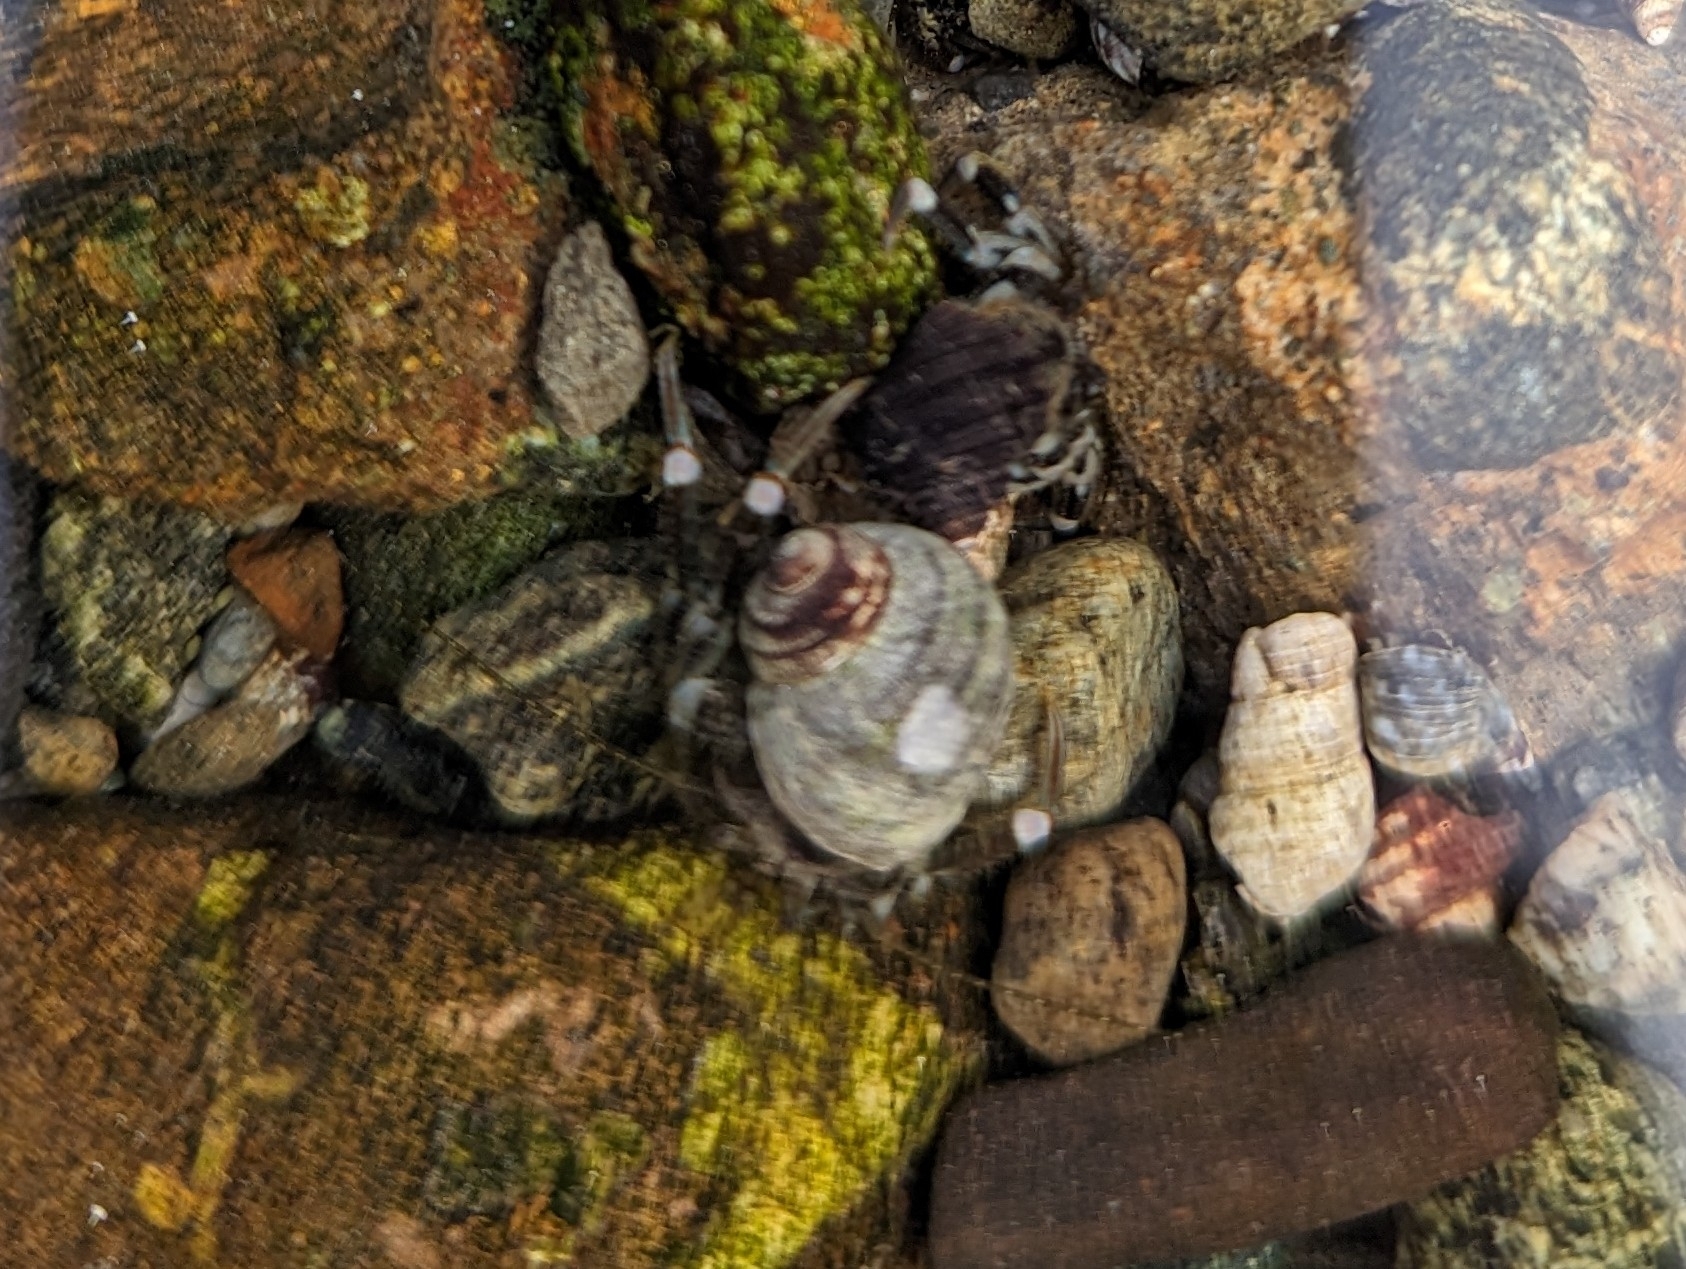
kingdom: Animalia
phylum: Arthropoda
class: Malacostraca
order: Decapoda
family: Paguridae
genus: Pagurus
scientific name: Pagurus hirsutiusculus
